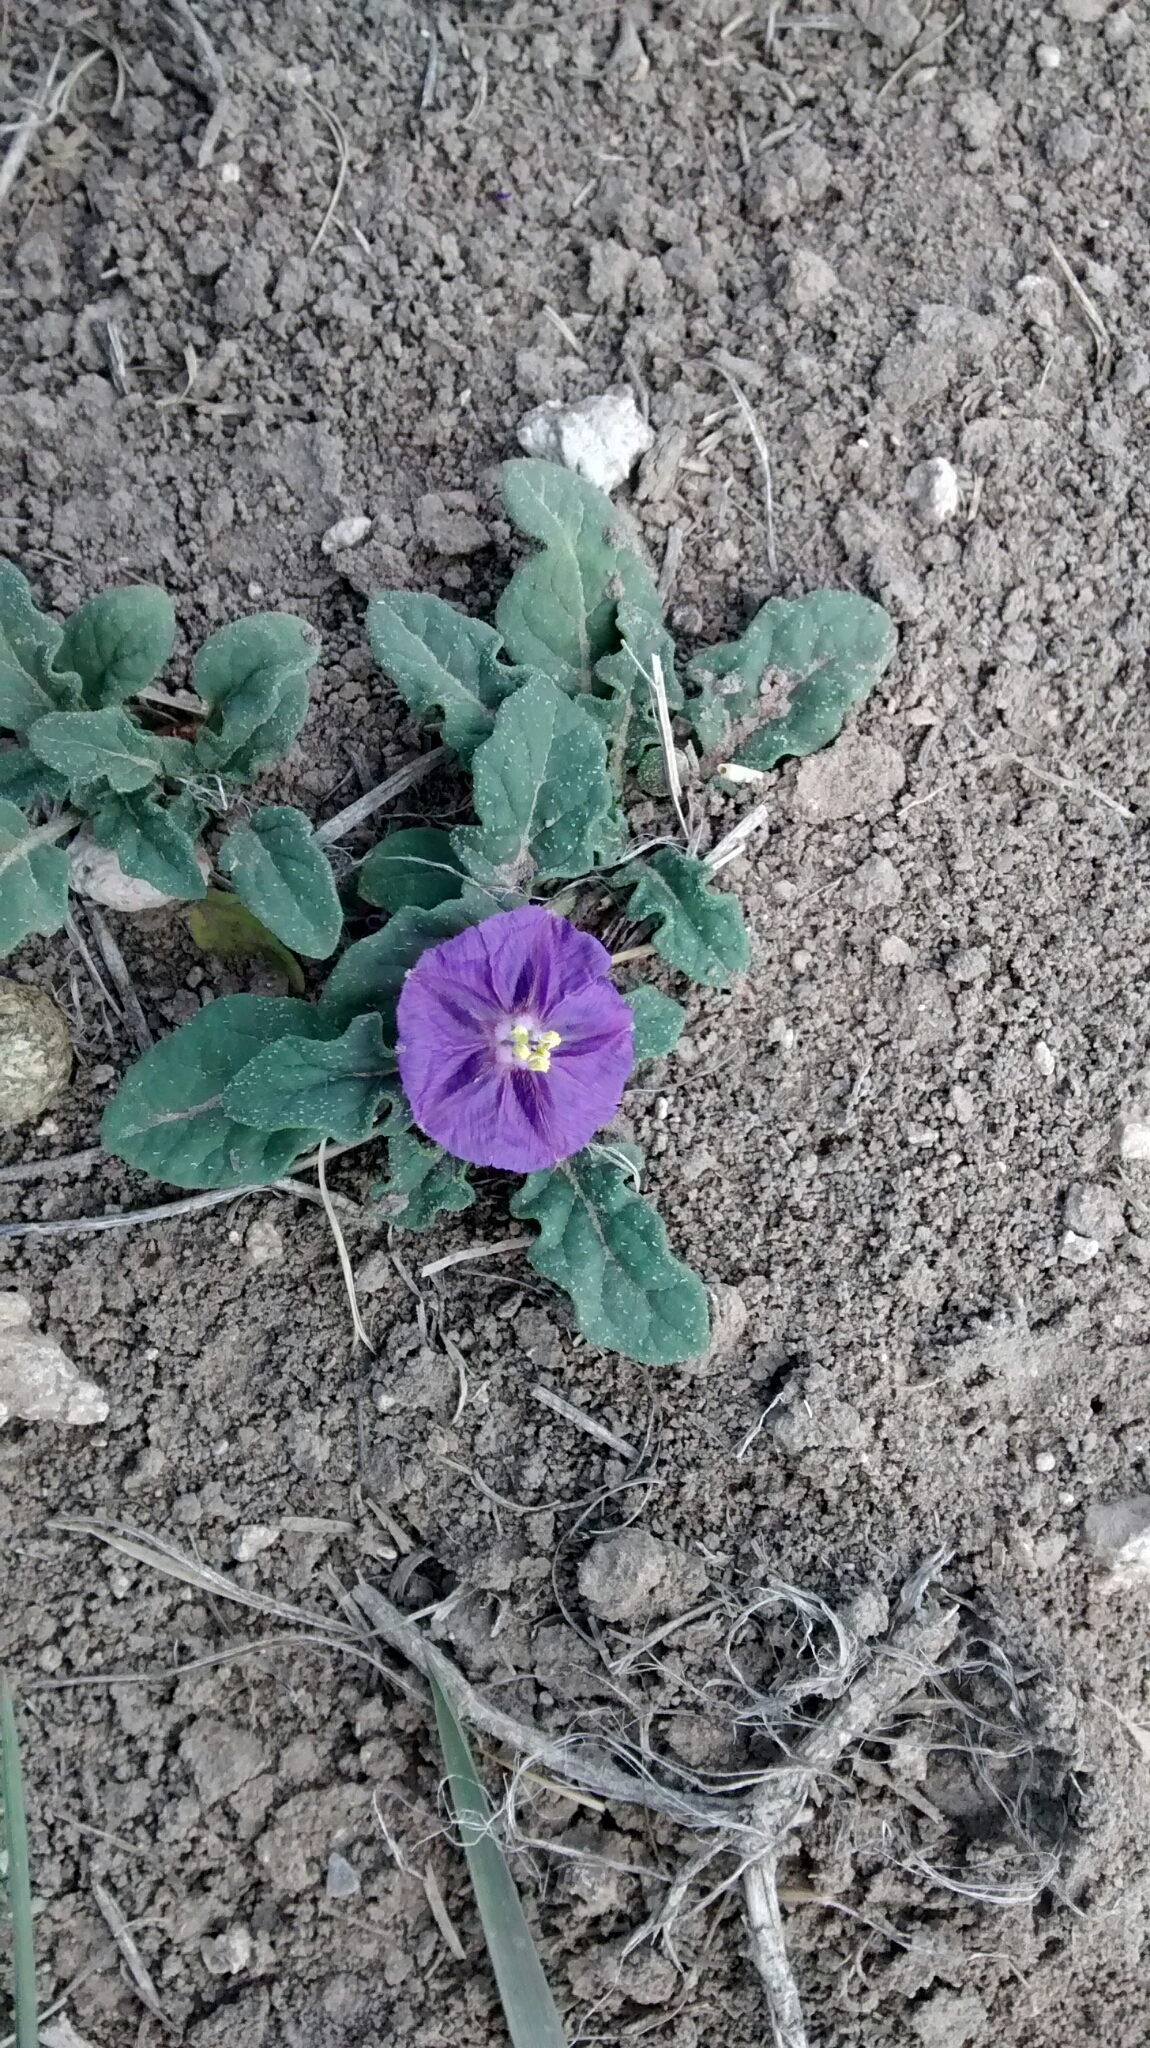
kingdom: Plantae
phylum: Tracheophyta
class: Magnoliopsida
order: Solanales
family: Solanaceae
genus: Quincula
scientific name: Quincula lobata
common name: Purple-ground-cherry
